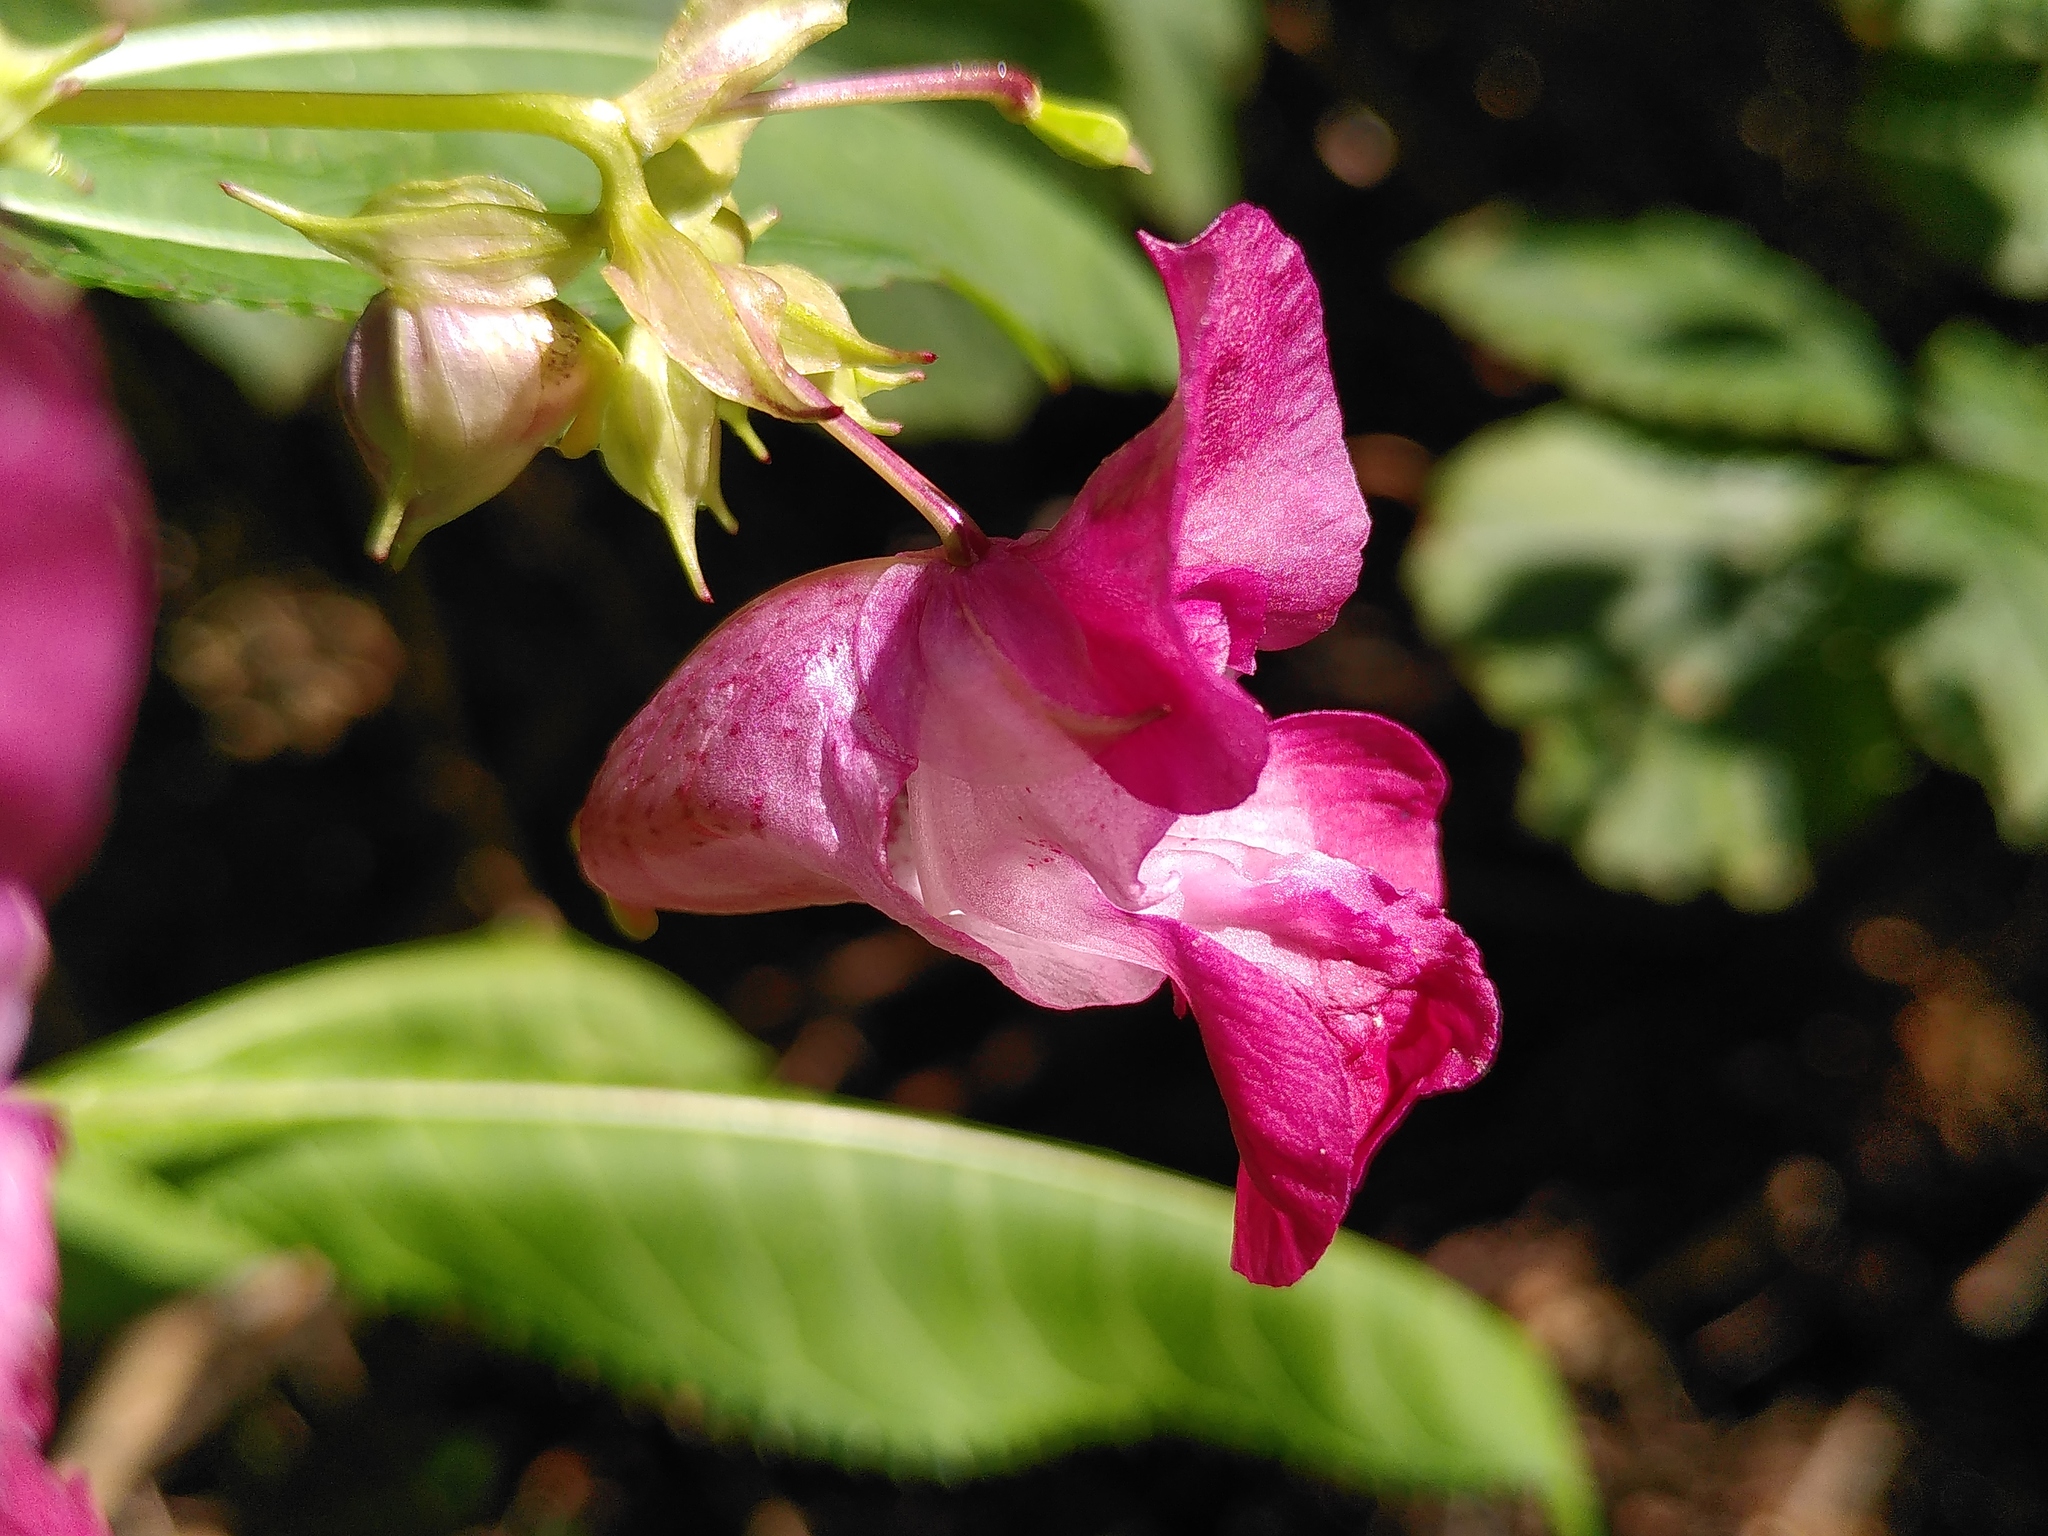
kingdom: Plantae
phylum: Tracheophyta
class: Magnoliopsida
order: Ericales
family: Balsaminaceae
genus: Impatiens
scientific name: Impatiens glandulifera
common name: Himalayan balsam
